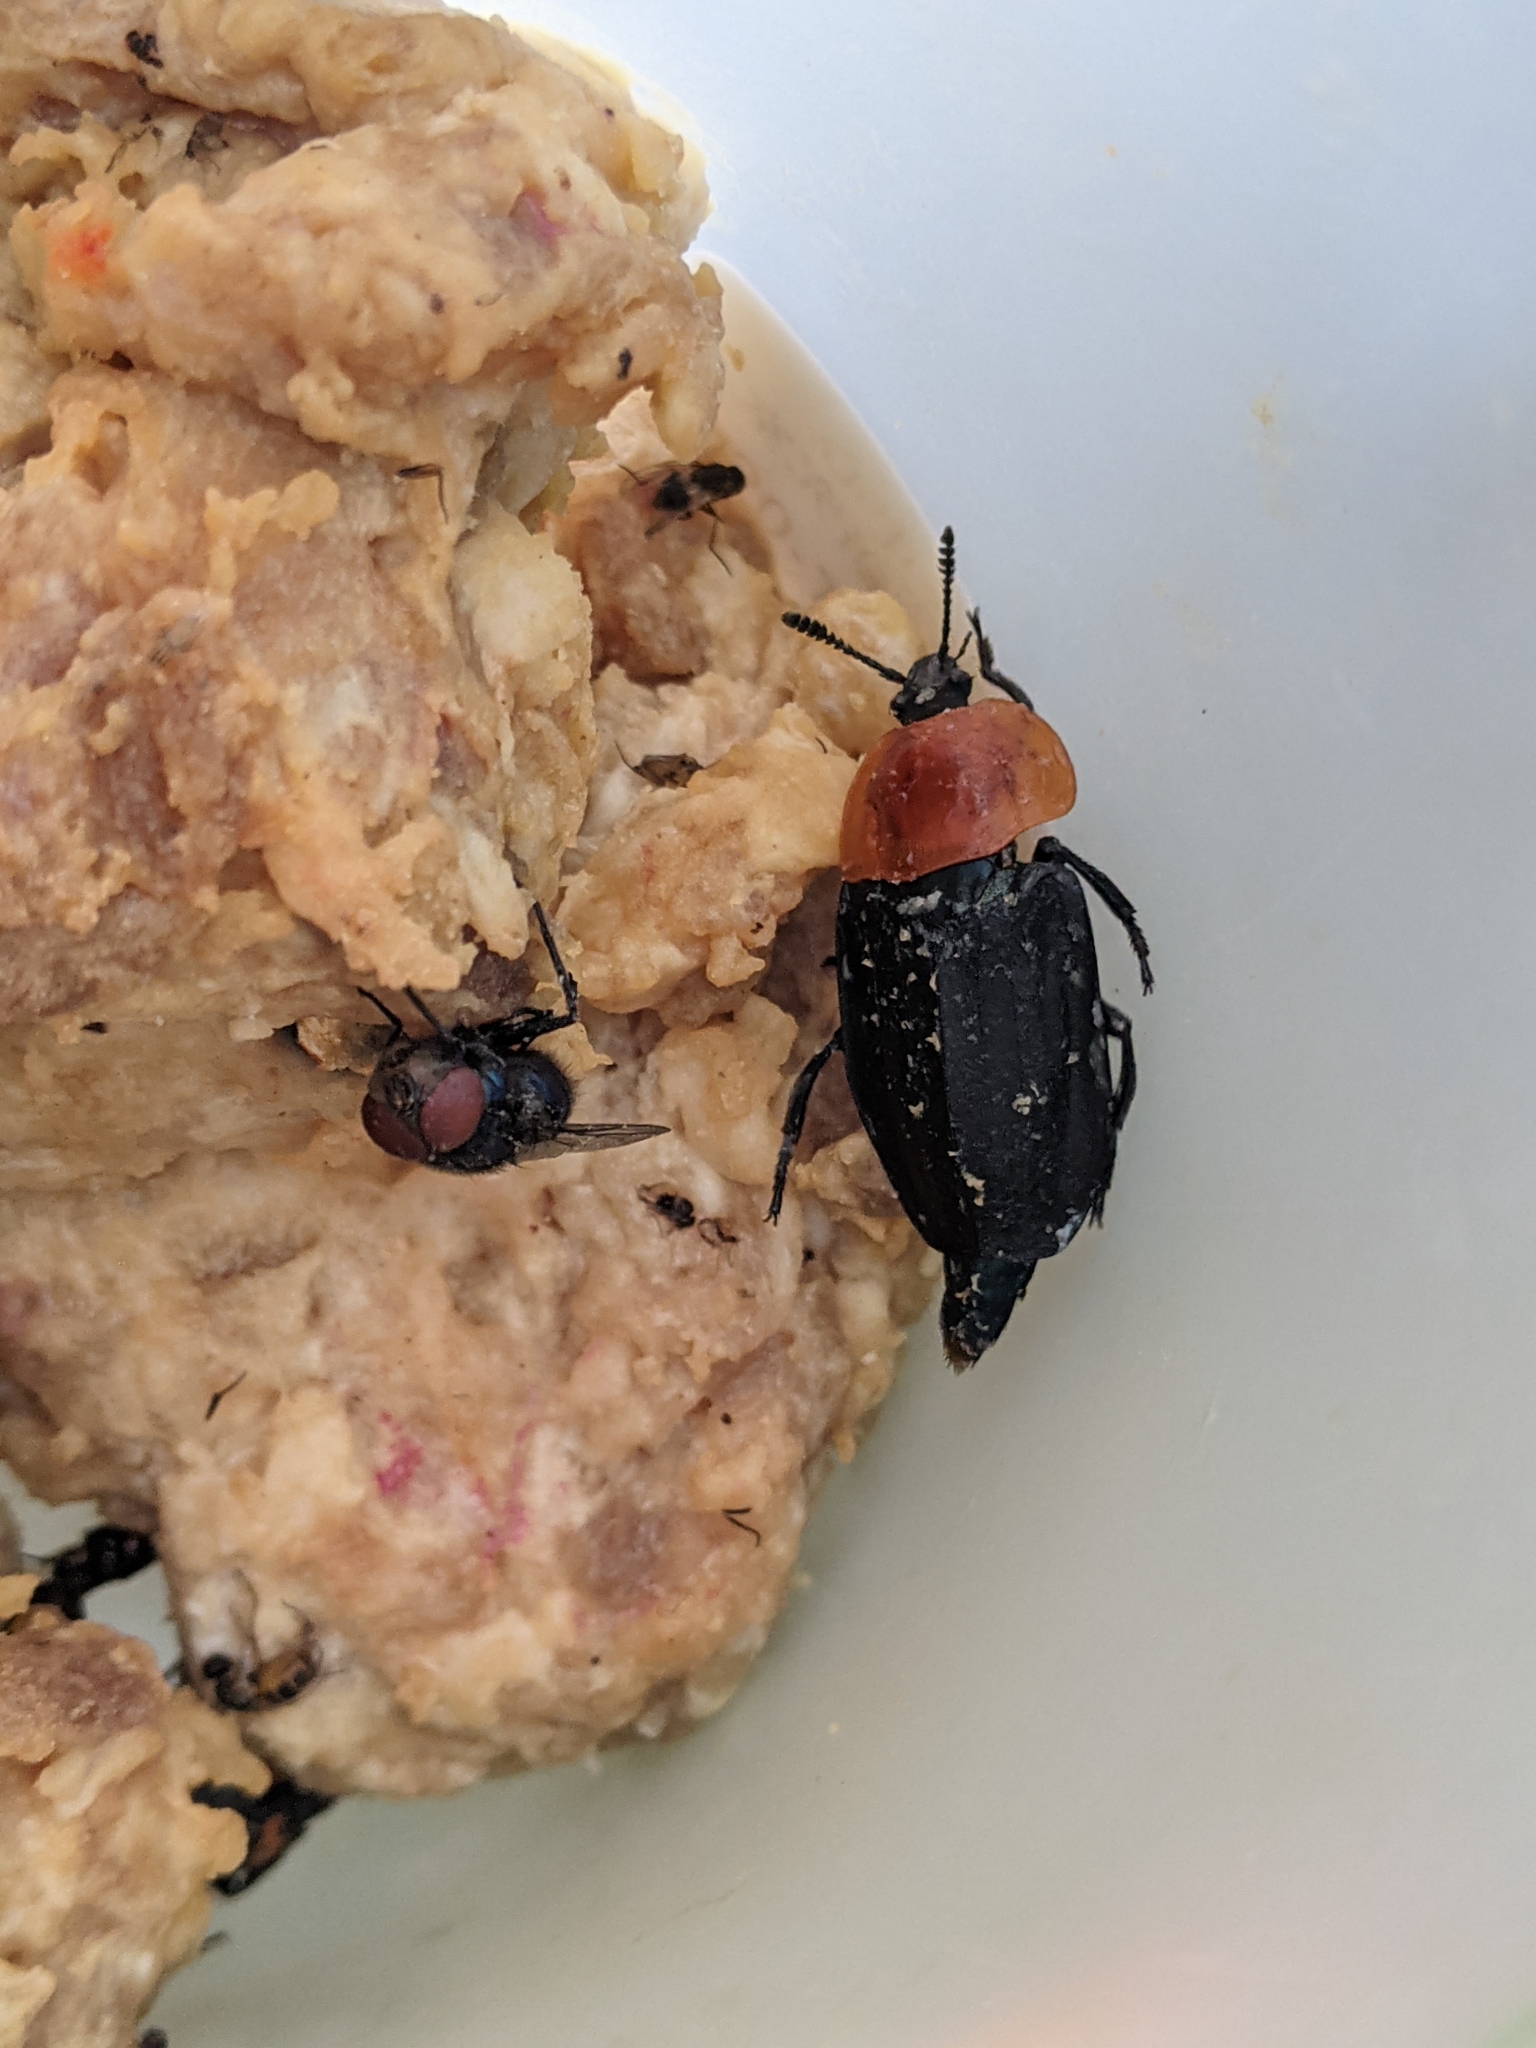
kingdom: Animalia
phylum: Arthropoda
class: Insecta
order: Coleoptera
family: Staphylinidae
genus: Necrophila
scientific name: Necrophila cyaneocephala
